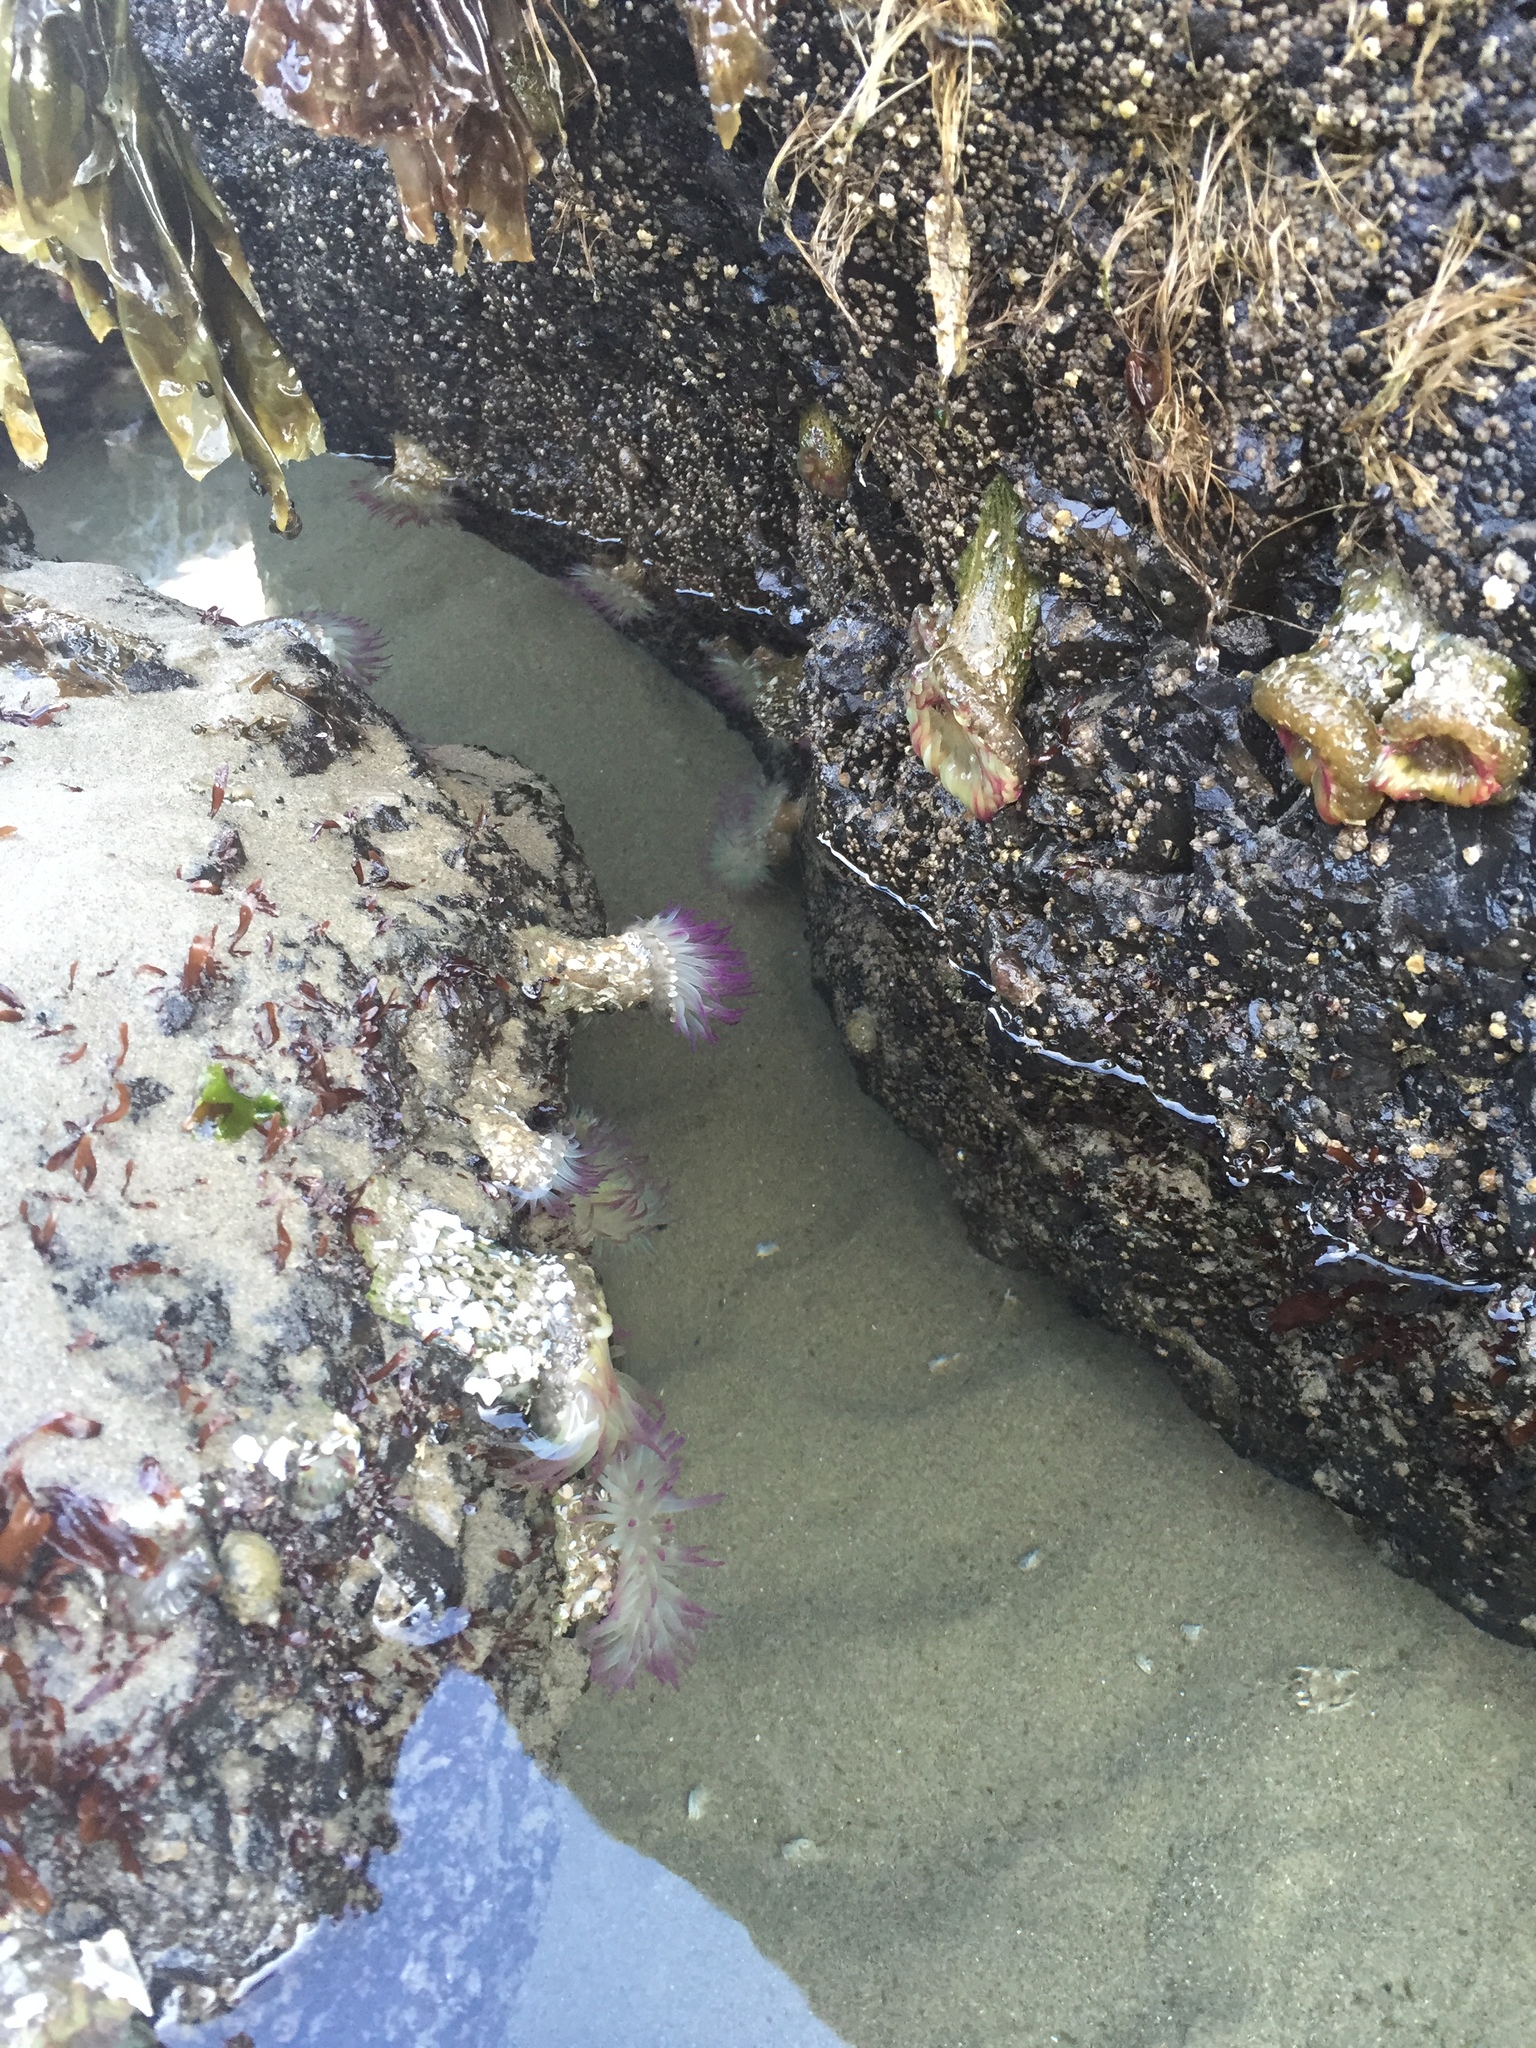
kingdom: Animalia
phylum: Cnidaria
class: Anthozoa
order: Actiniaria
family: Actiniidae
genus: Anthopleura
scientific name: Anthopleura elegantissima
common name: Clonal anemone
